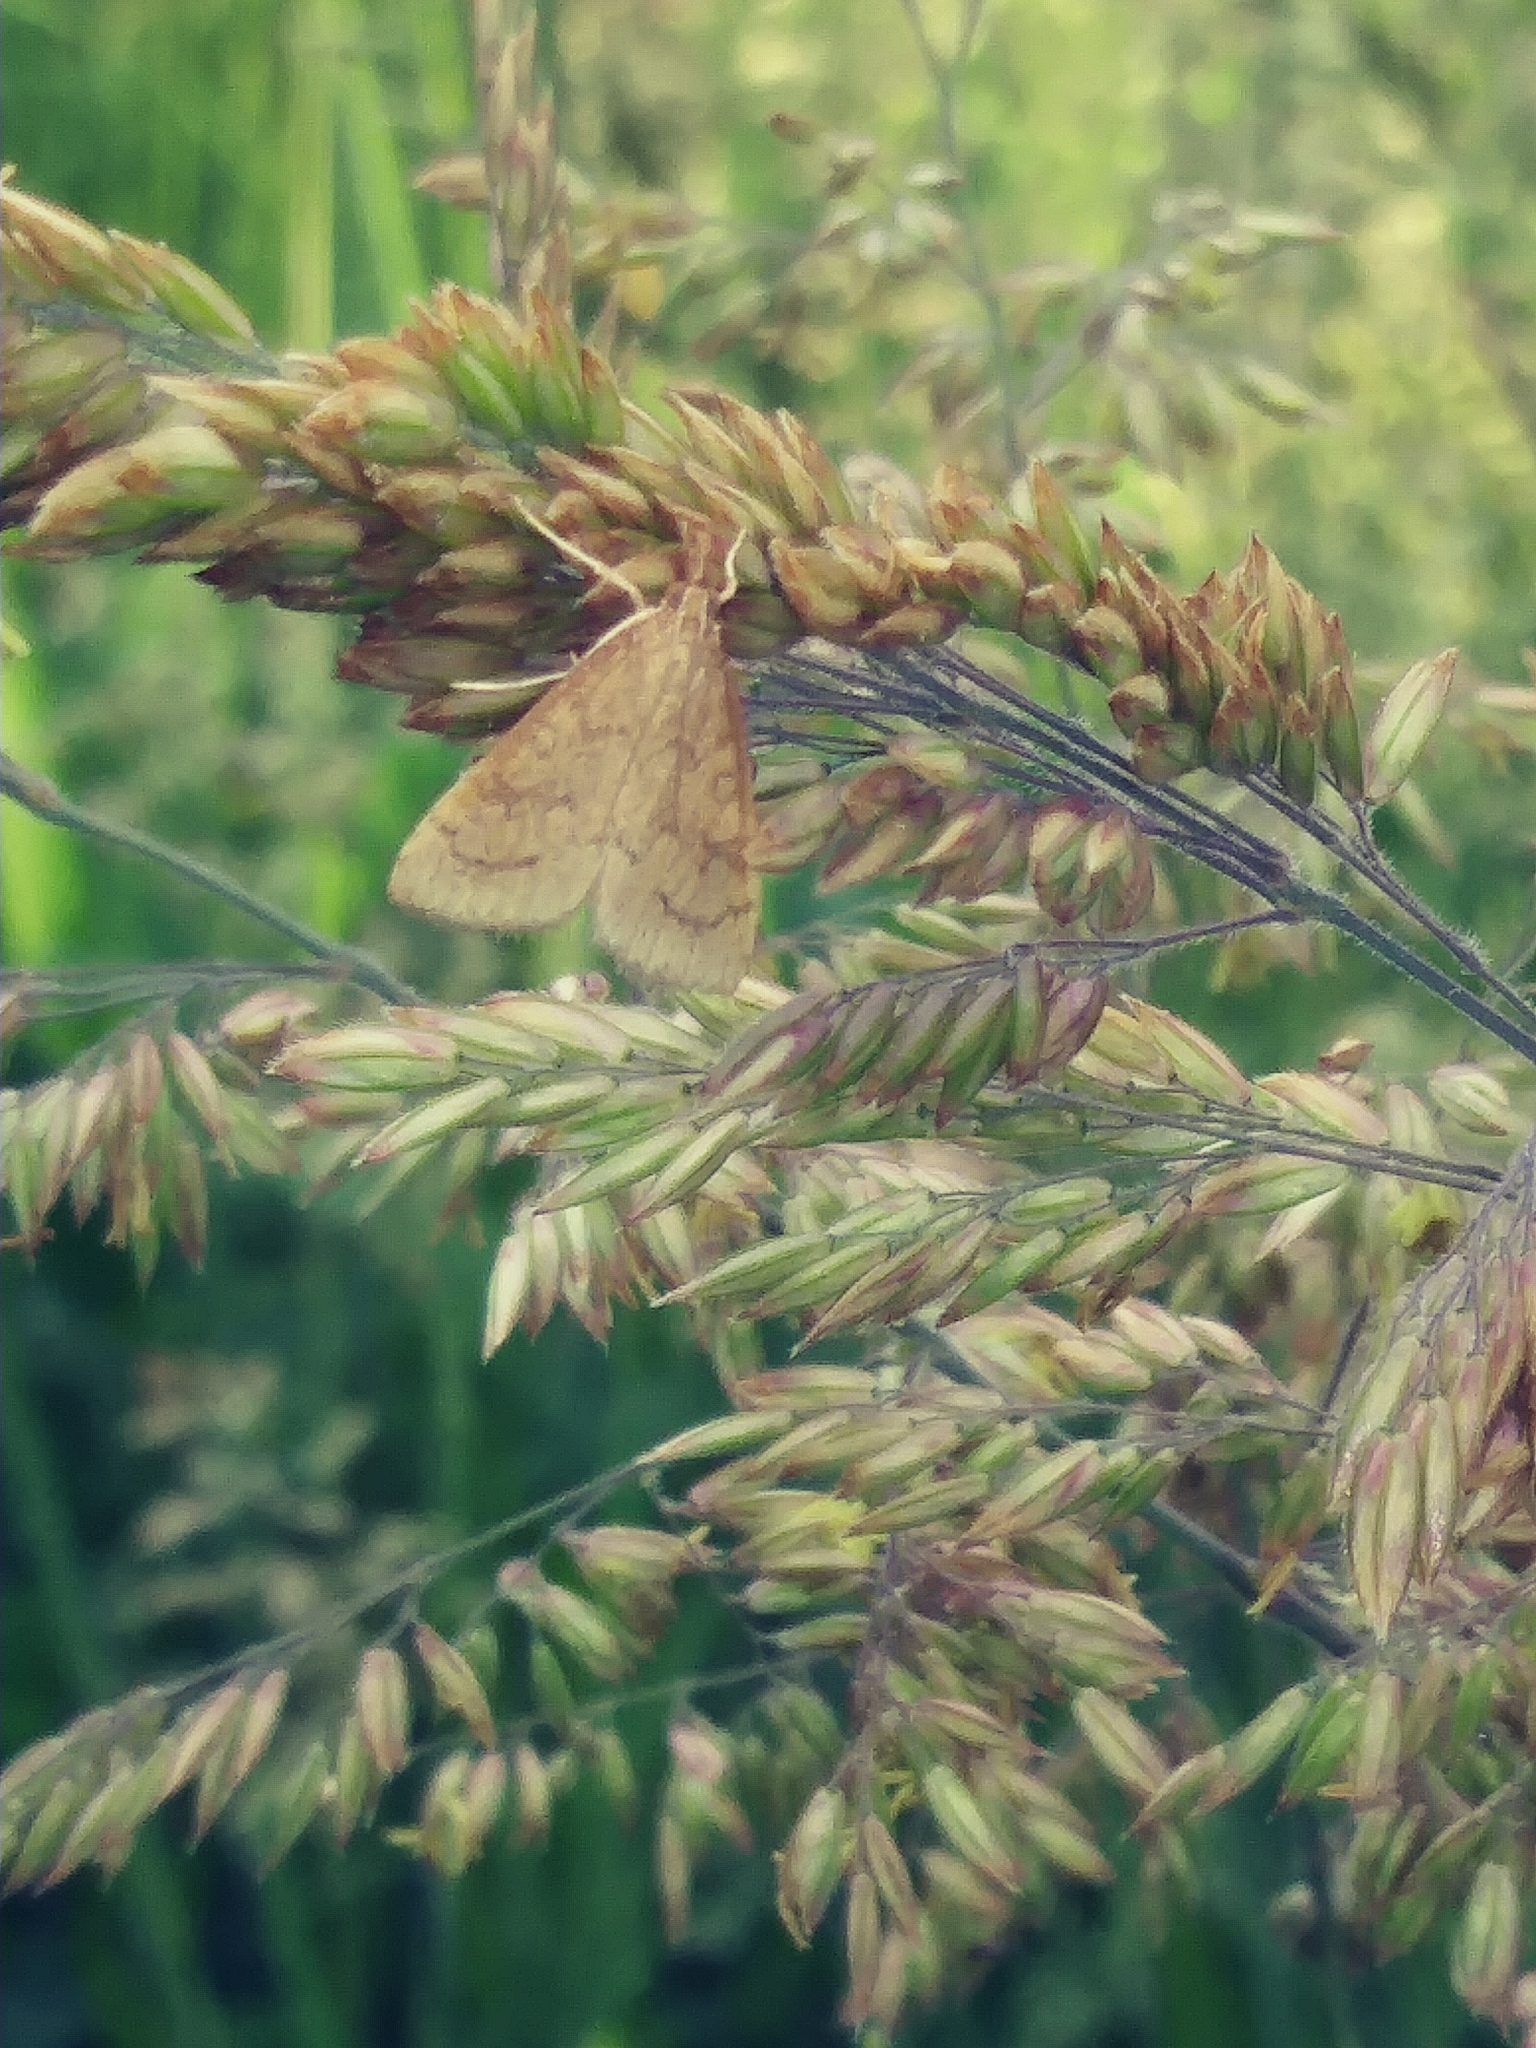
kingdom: Animalia
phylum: Arthropoda
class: Insecta
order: Lepidoptera
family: Crambidae
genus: Udea
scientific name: Udea rubigalis
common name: Celery leaftier moth
